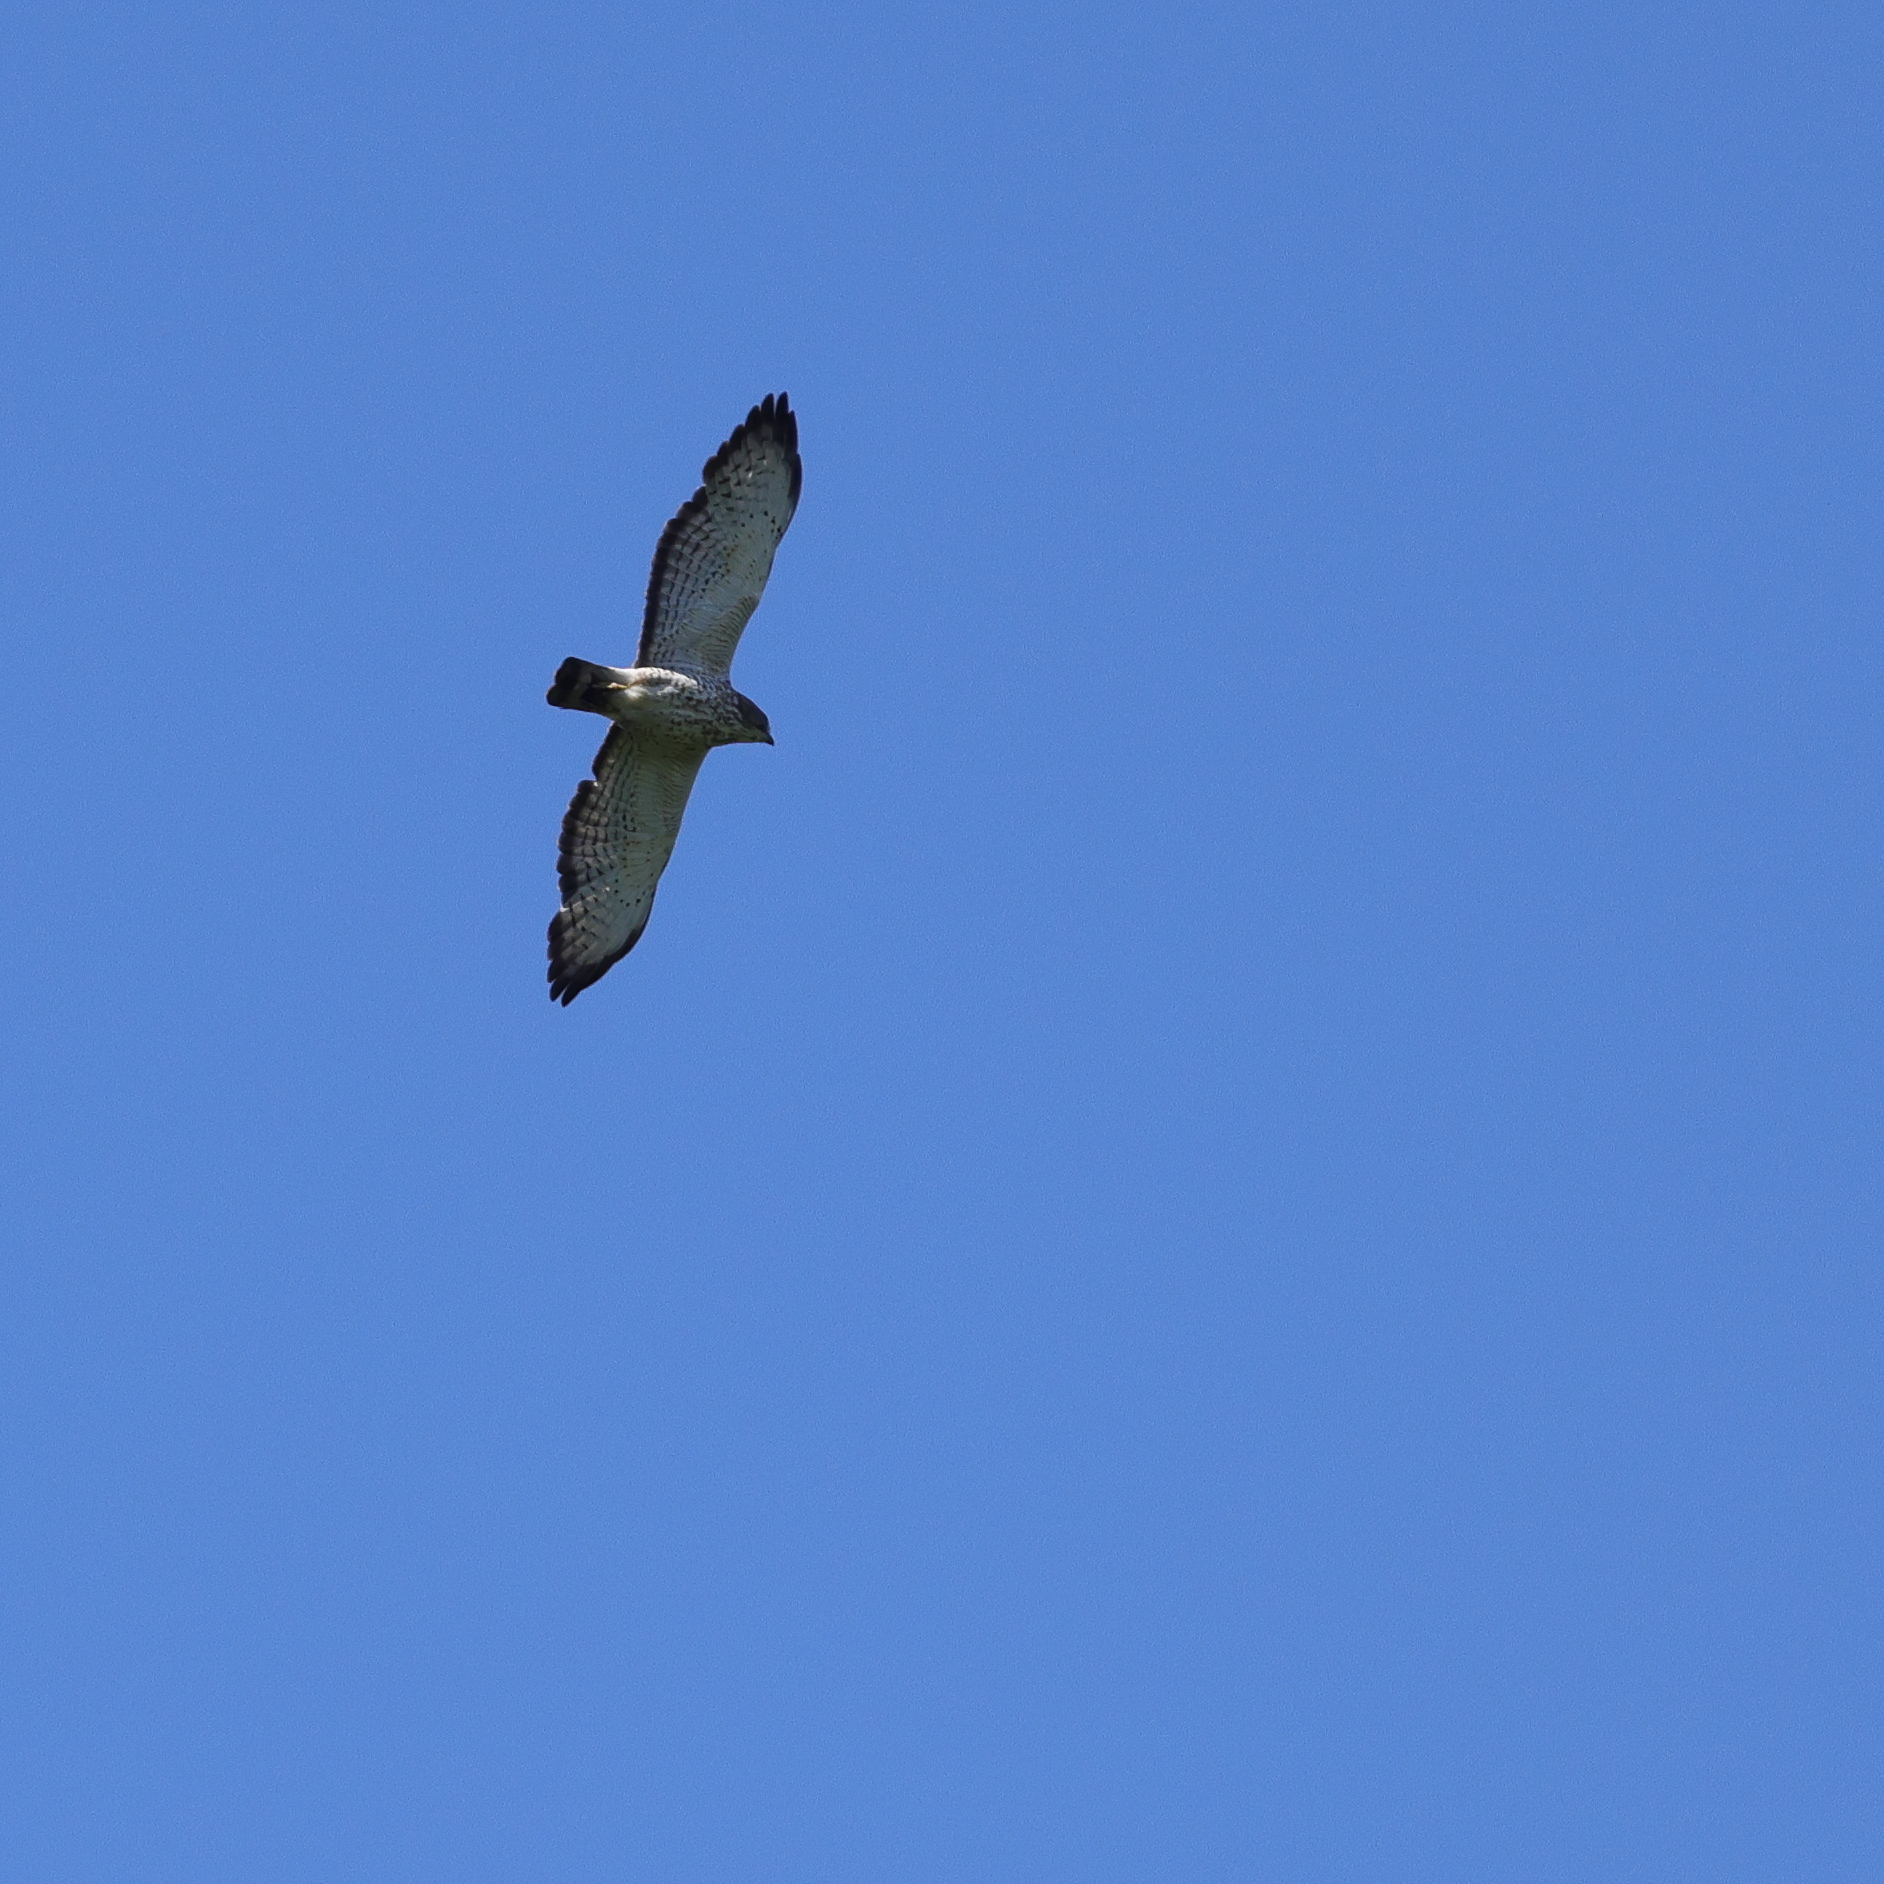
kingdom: Animalia
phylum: Chordata
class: Aves
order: Accipitriformes
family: Accipitridae
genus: Buteo
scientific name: Buteo platypterus
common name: Broad-winged hawk
